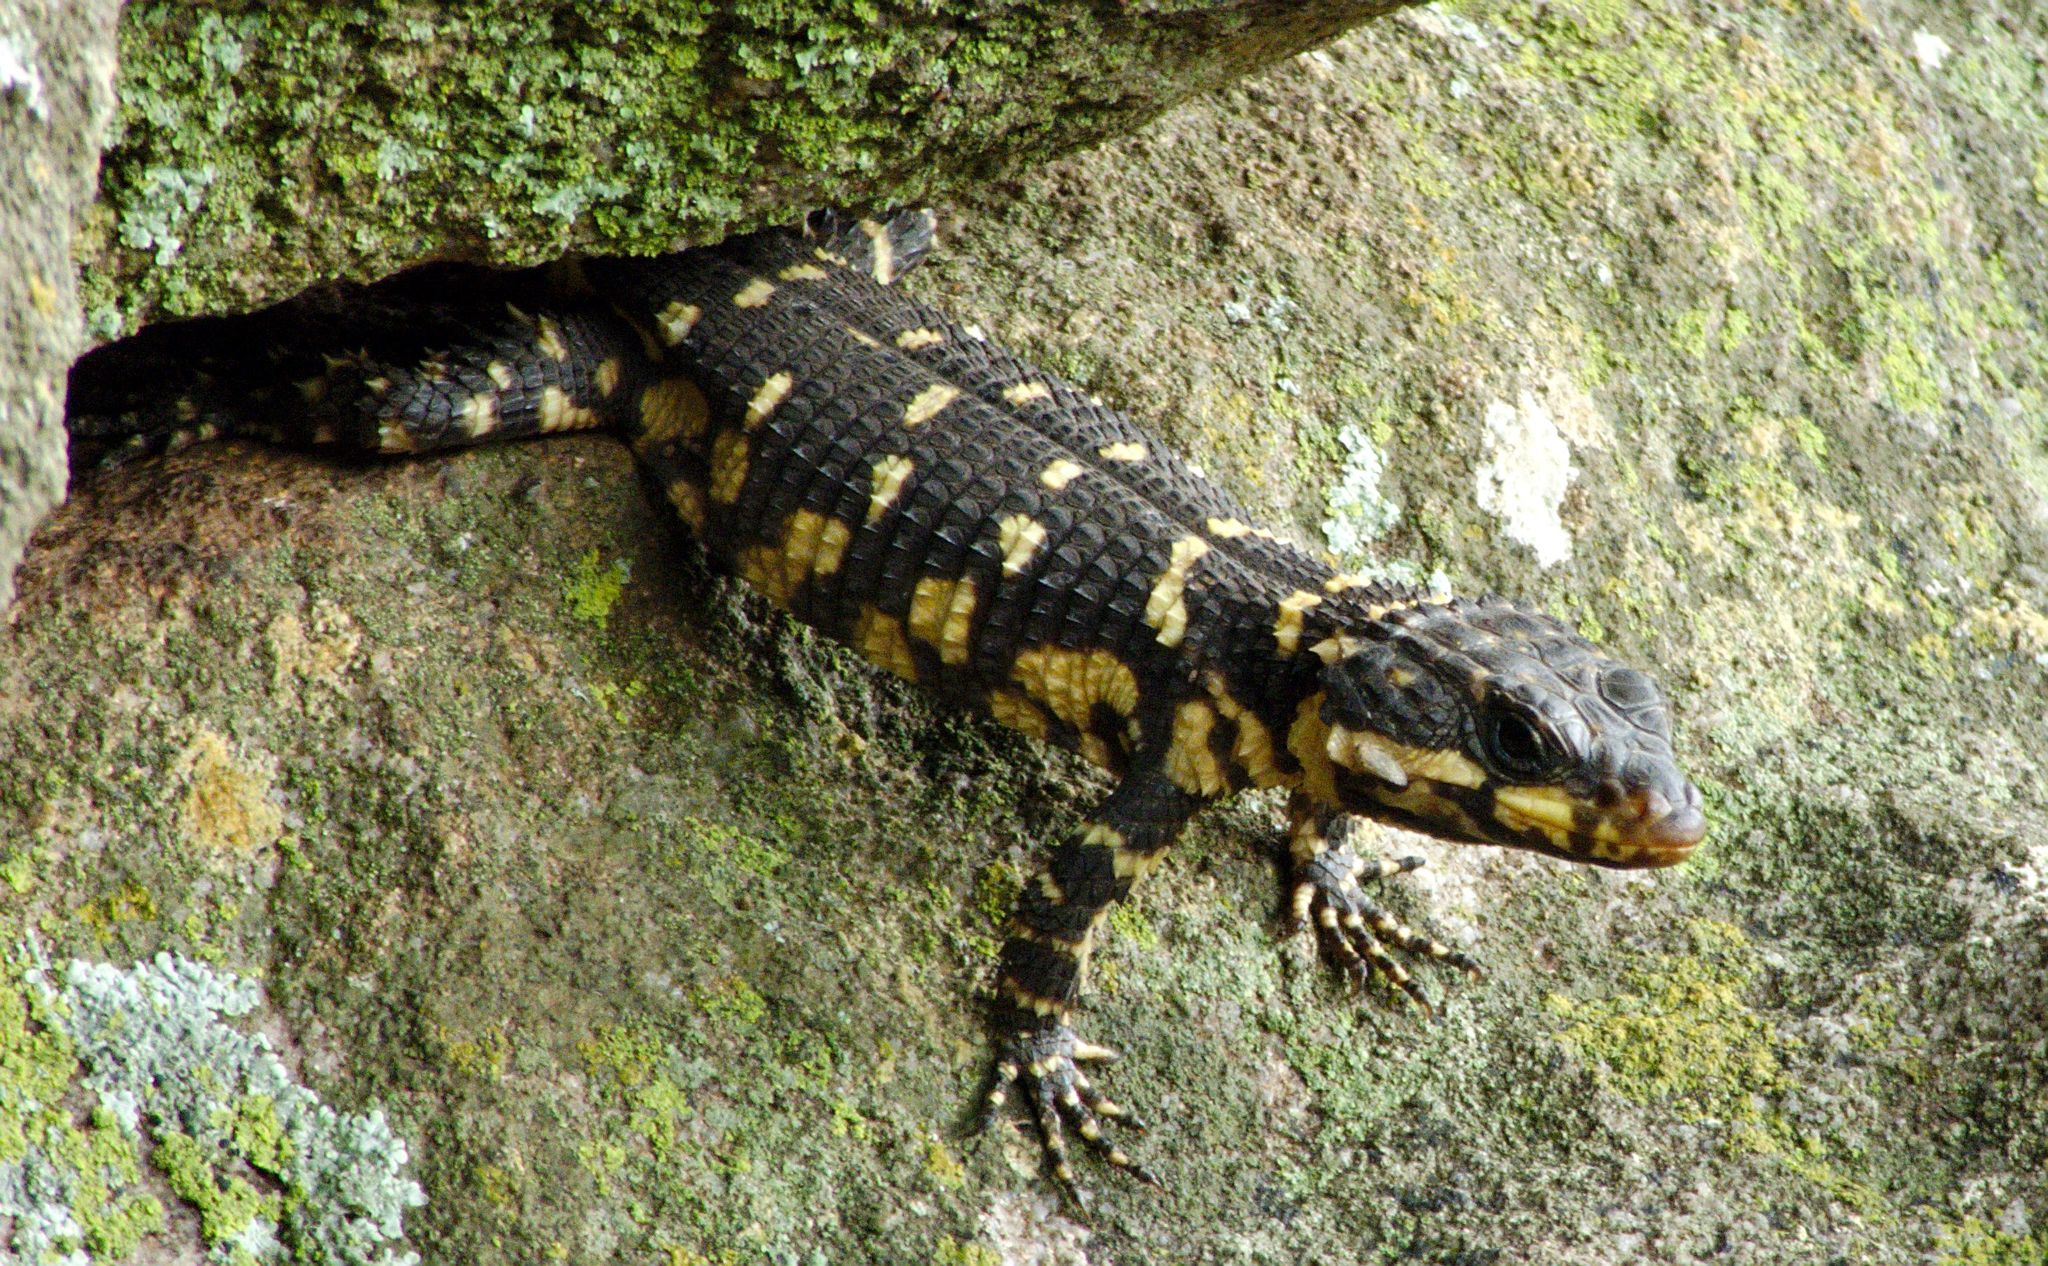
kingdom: Animalia
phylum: Chordata
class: Squamata
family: Cordylidae
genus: Smaug
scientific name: Smaug swazicus
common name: Swazi dragon lizard
